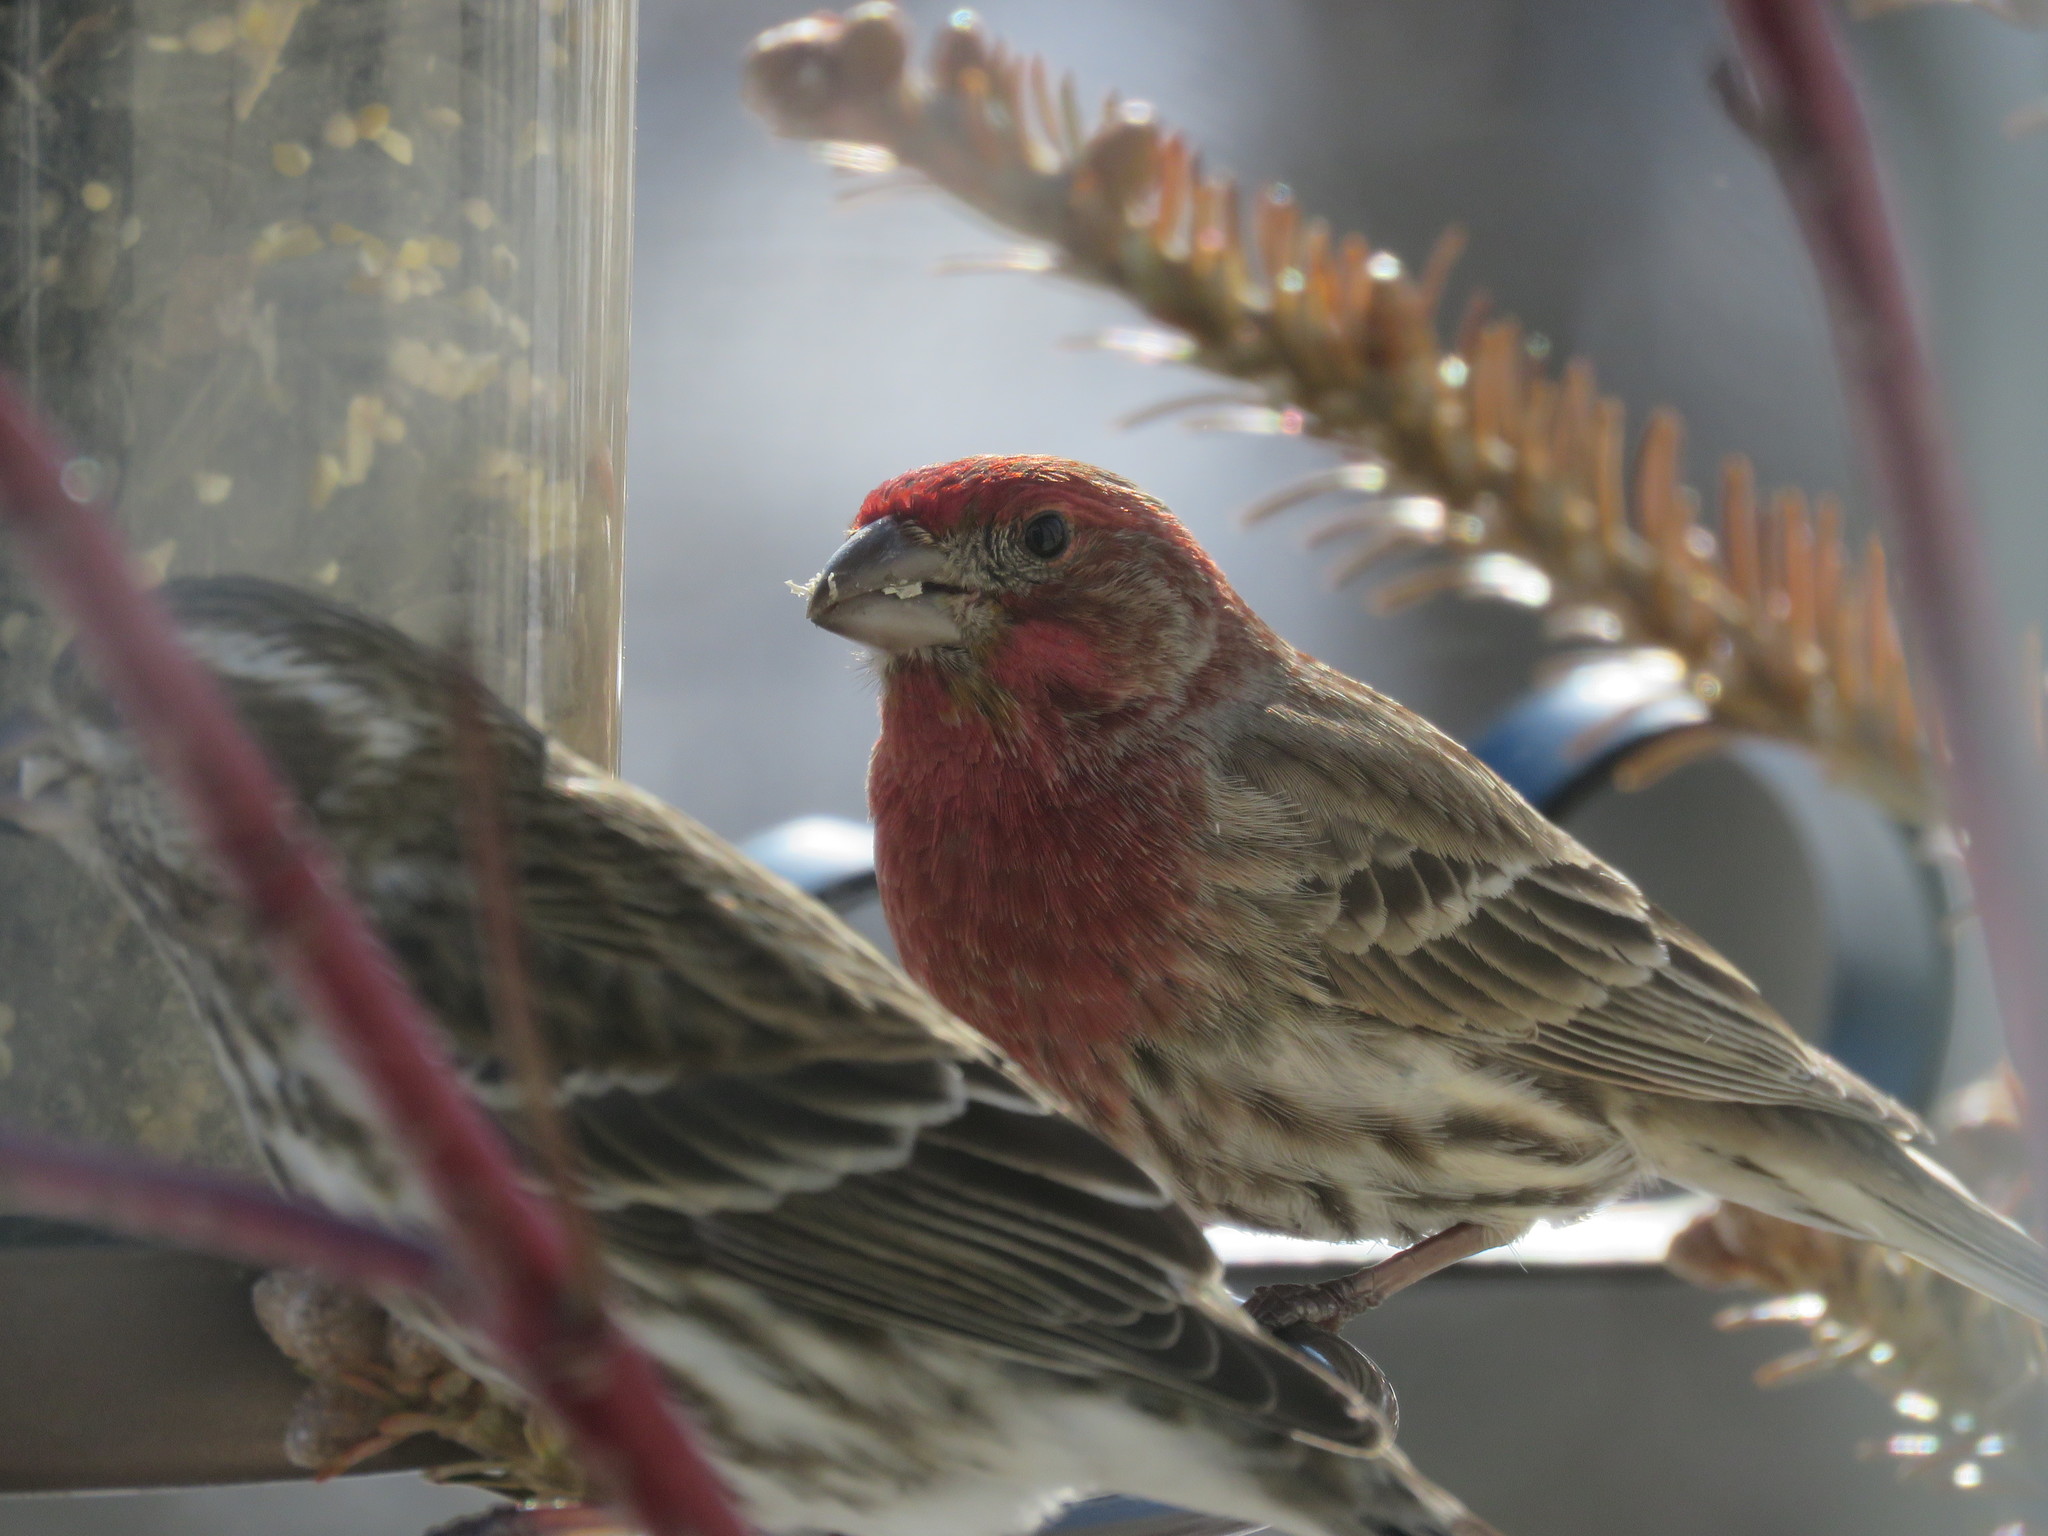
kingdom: Animalia
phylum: Chordata
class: Aves
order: Passeriformes
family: Fringillidae
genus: Haemorhous
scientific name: Haemorhous mexicanus
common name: House finch
